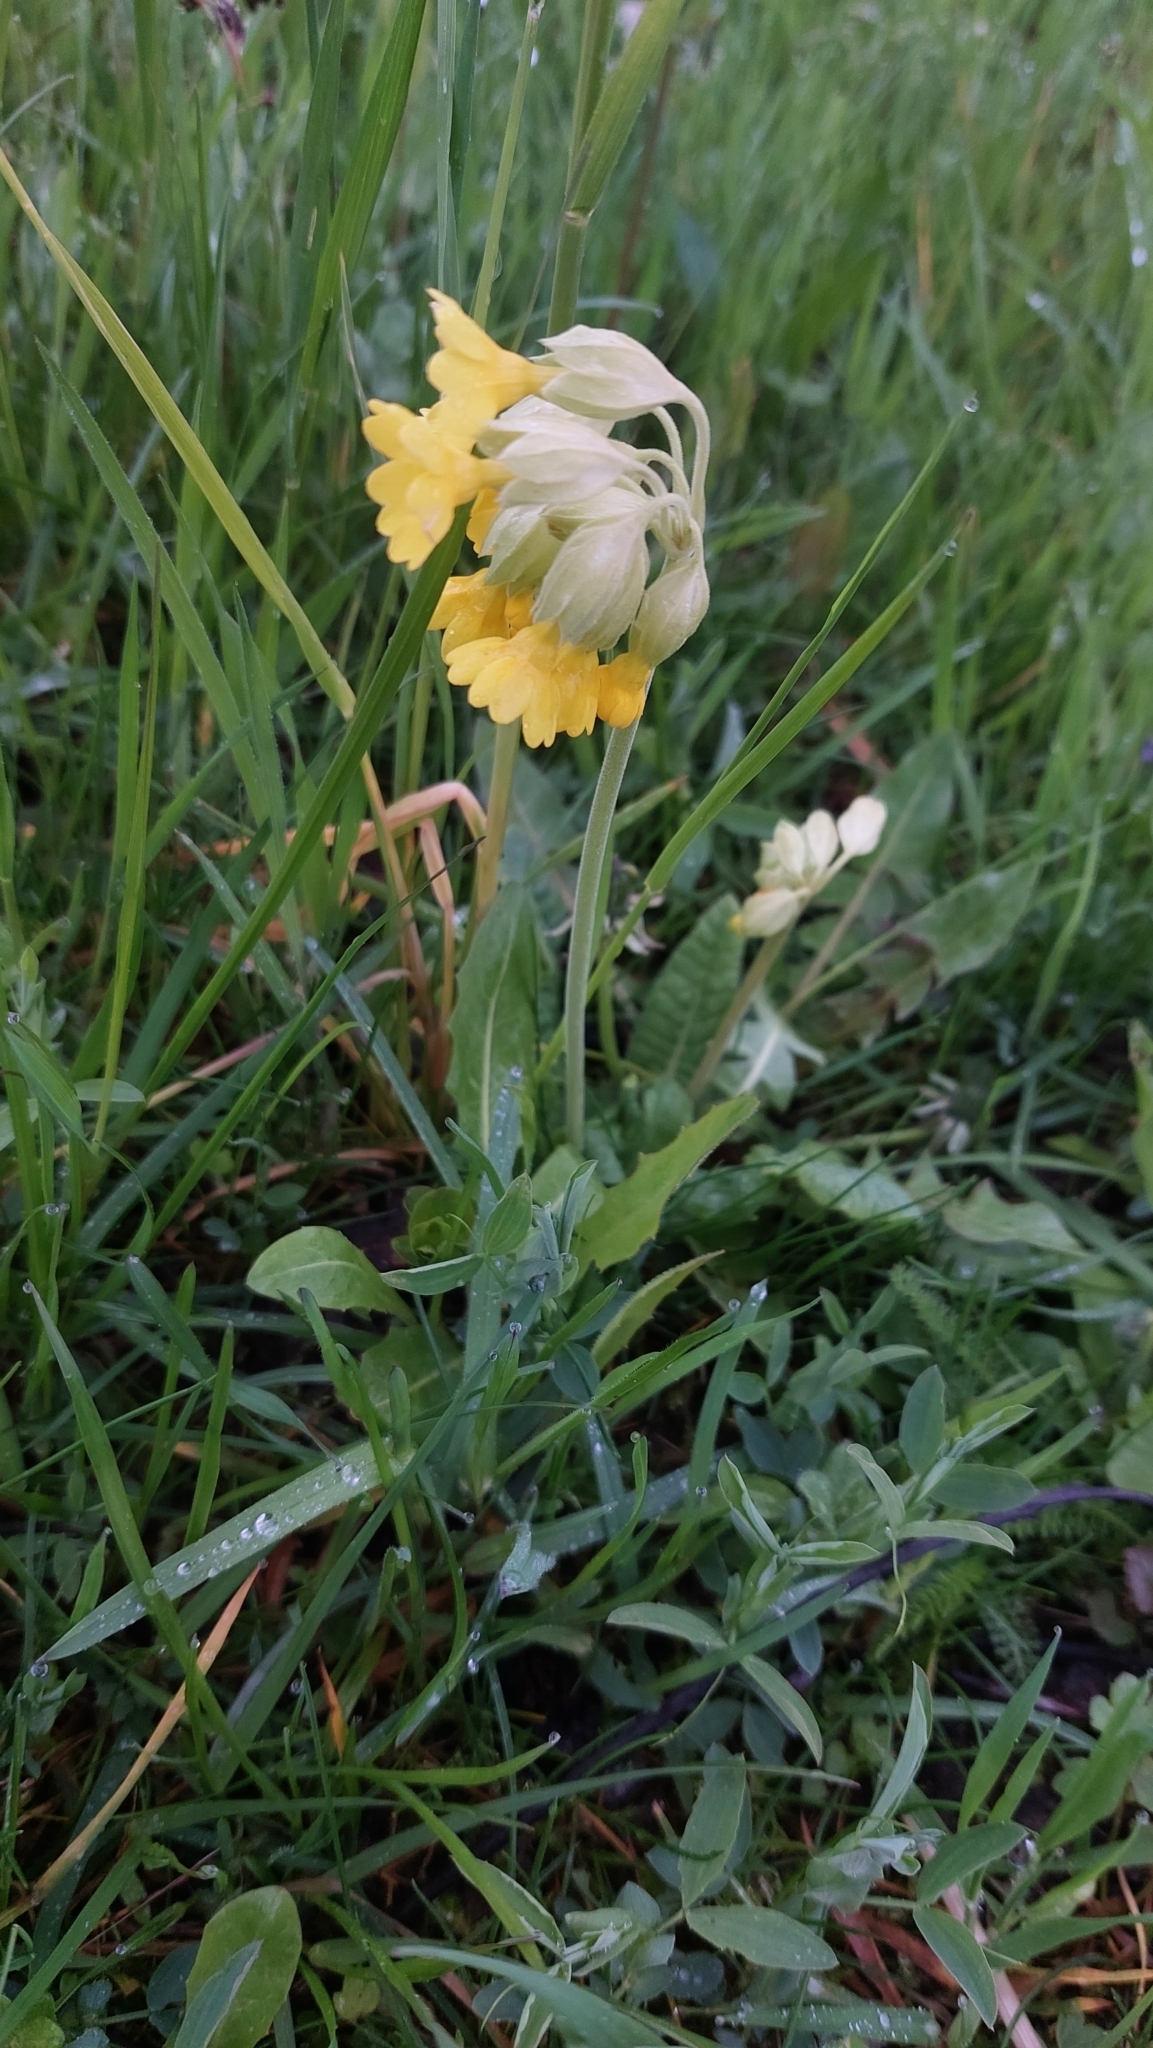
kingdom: Plantae
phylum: Tracheophyta
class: Magnoliopsida
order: Ericales
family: Primulaceae
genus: Primula
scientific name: Primula veris
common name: Cowslip
